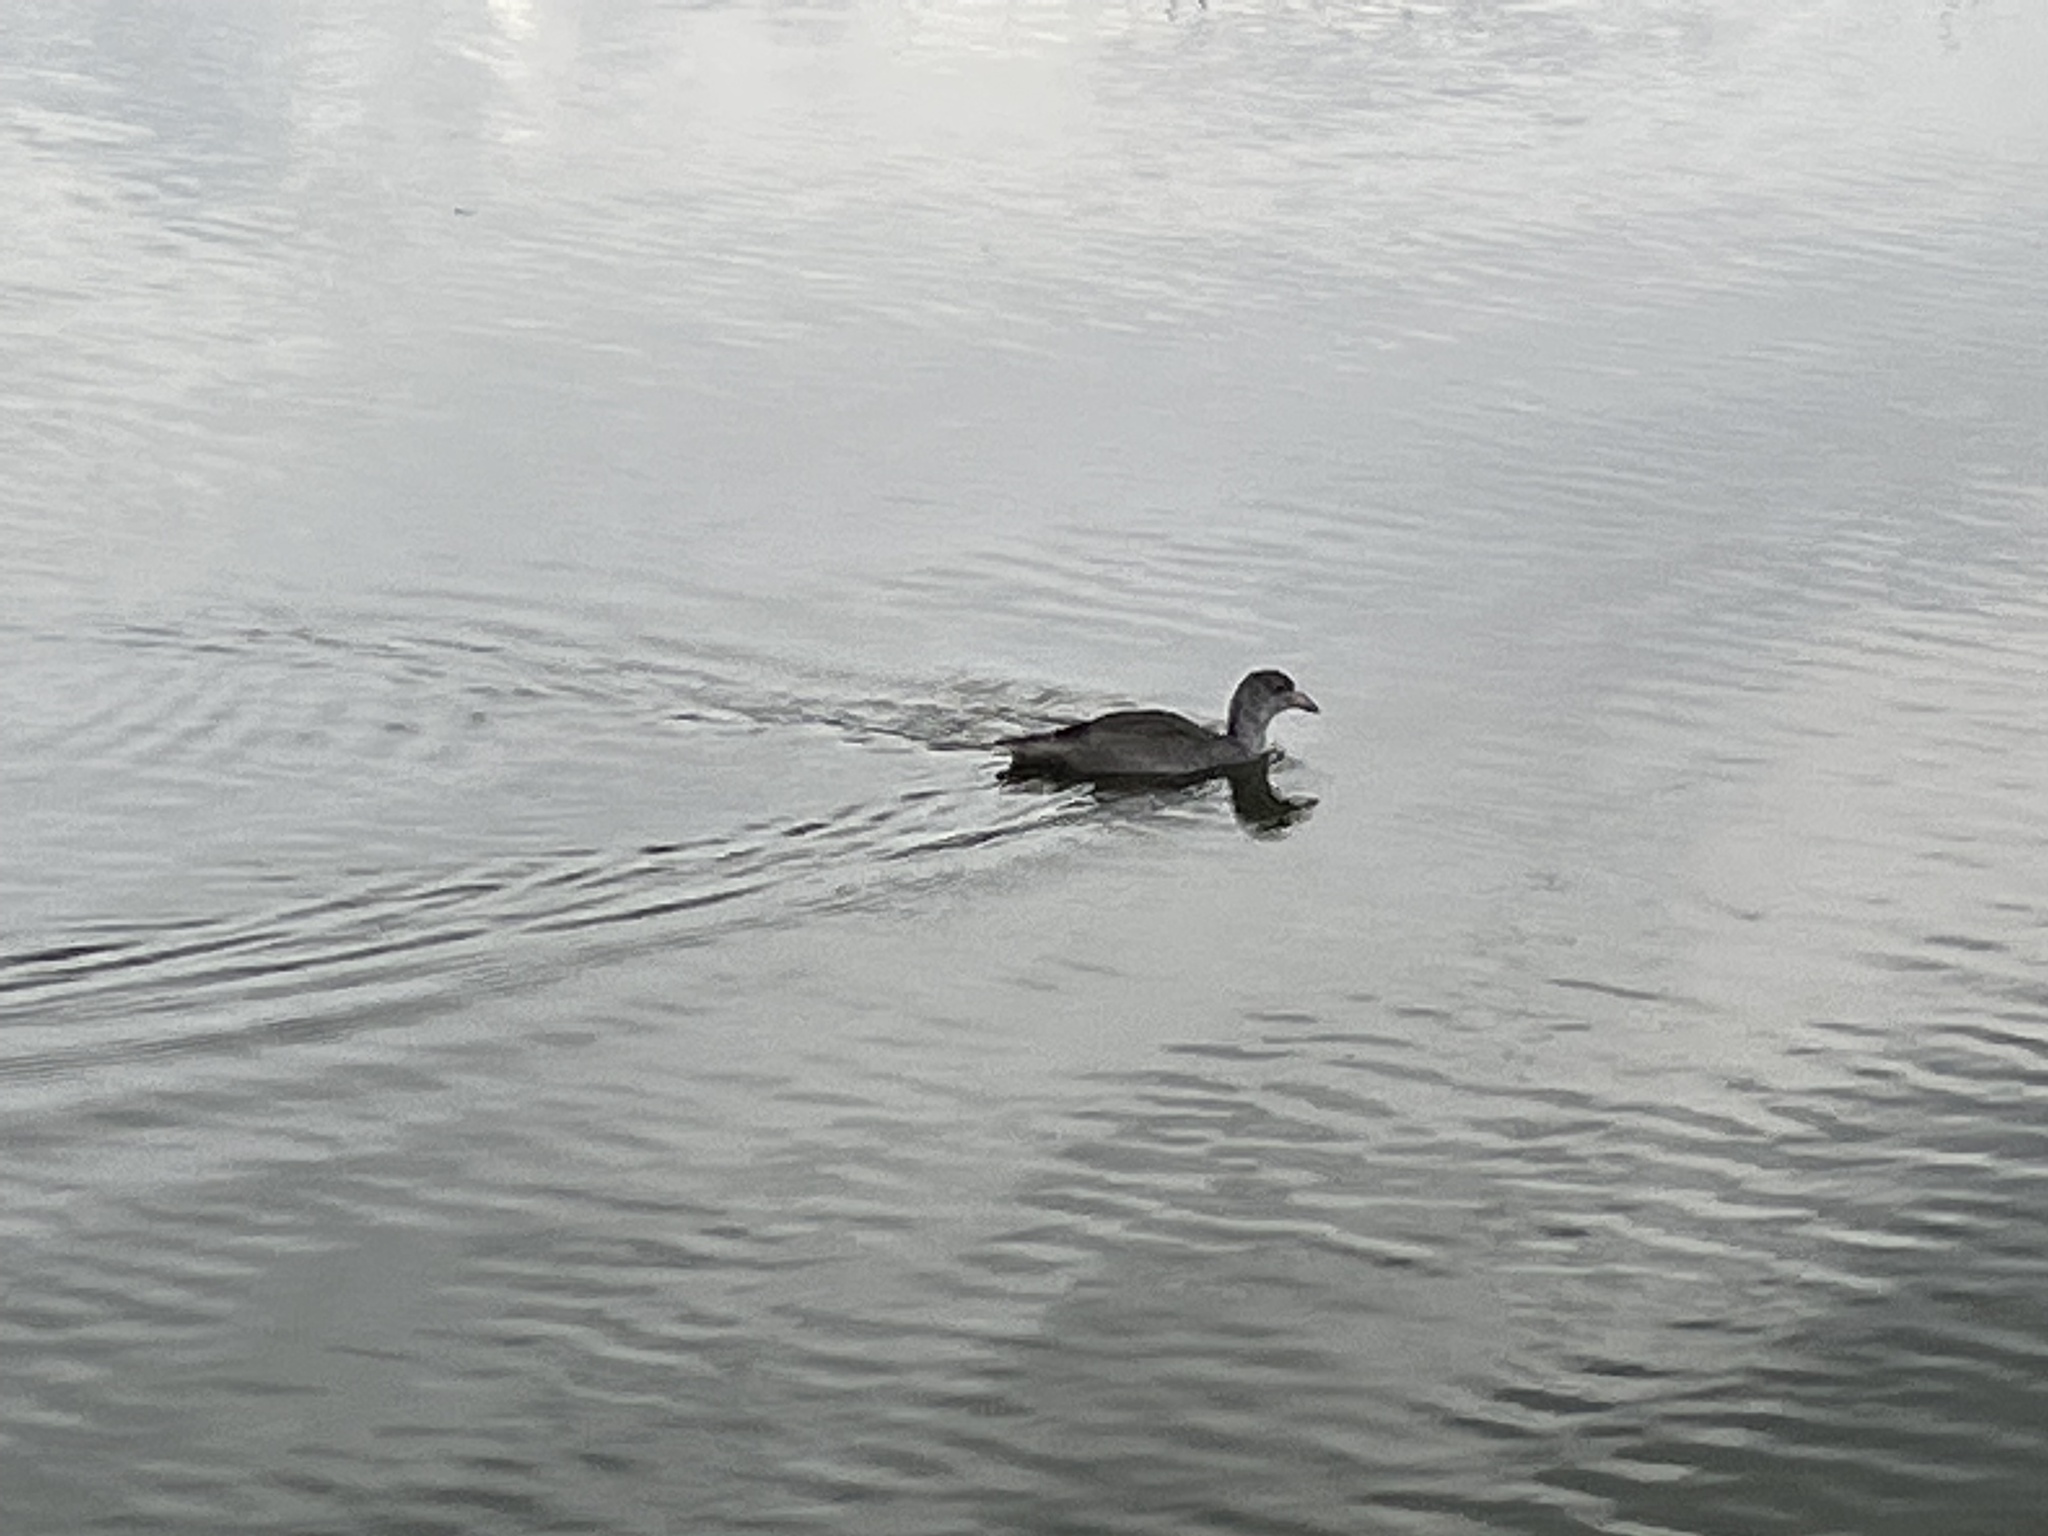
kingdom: Animalia
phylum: Chordata
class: Aves
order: Gruiformes
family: Rallidae
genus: Fulica
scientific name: Fulica americana
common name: American coot
